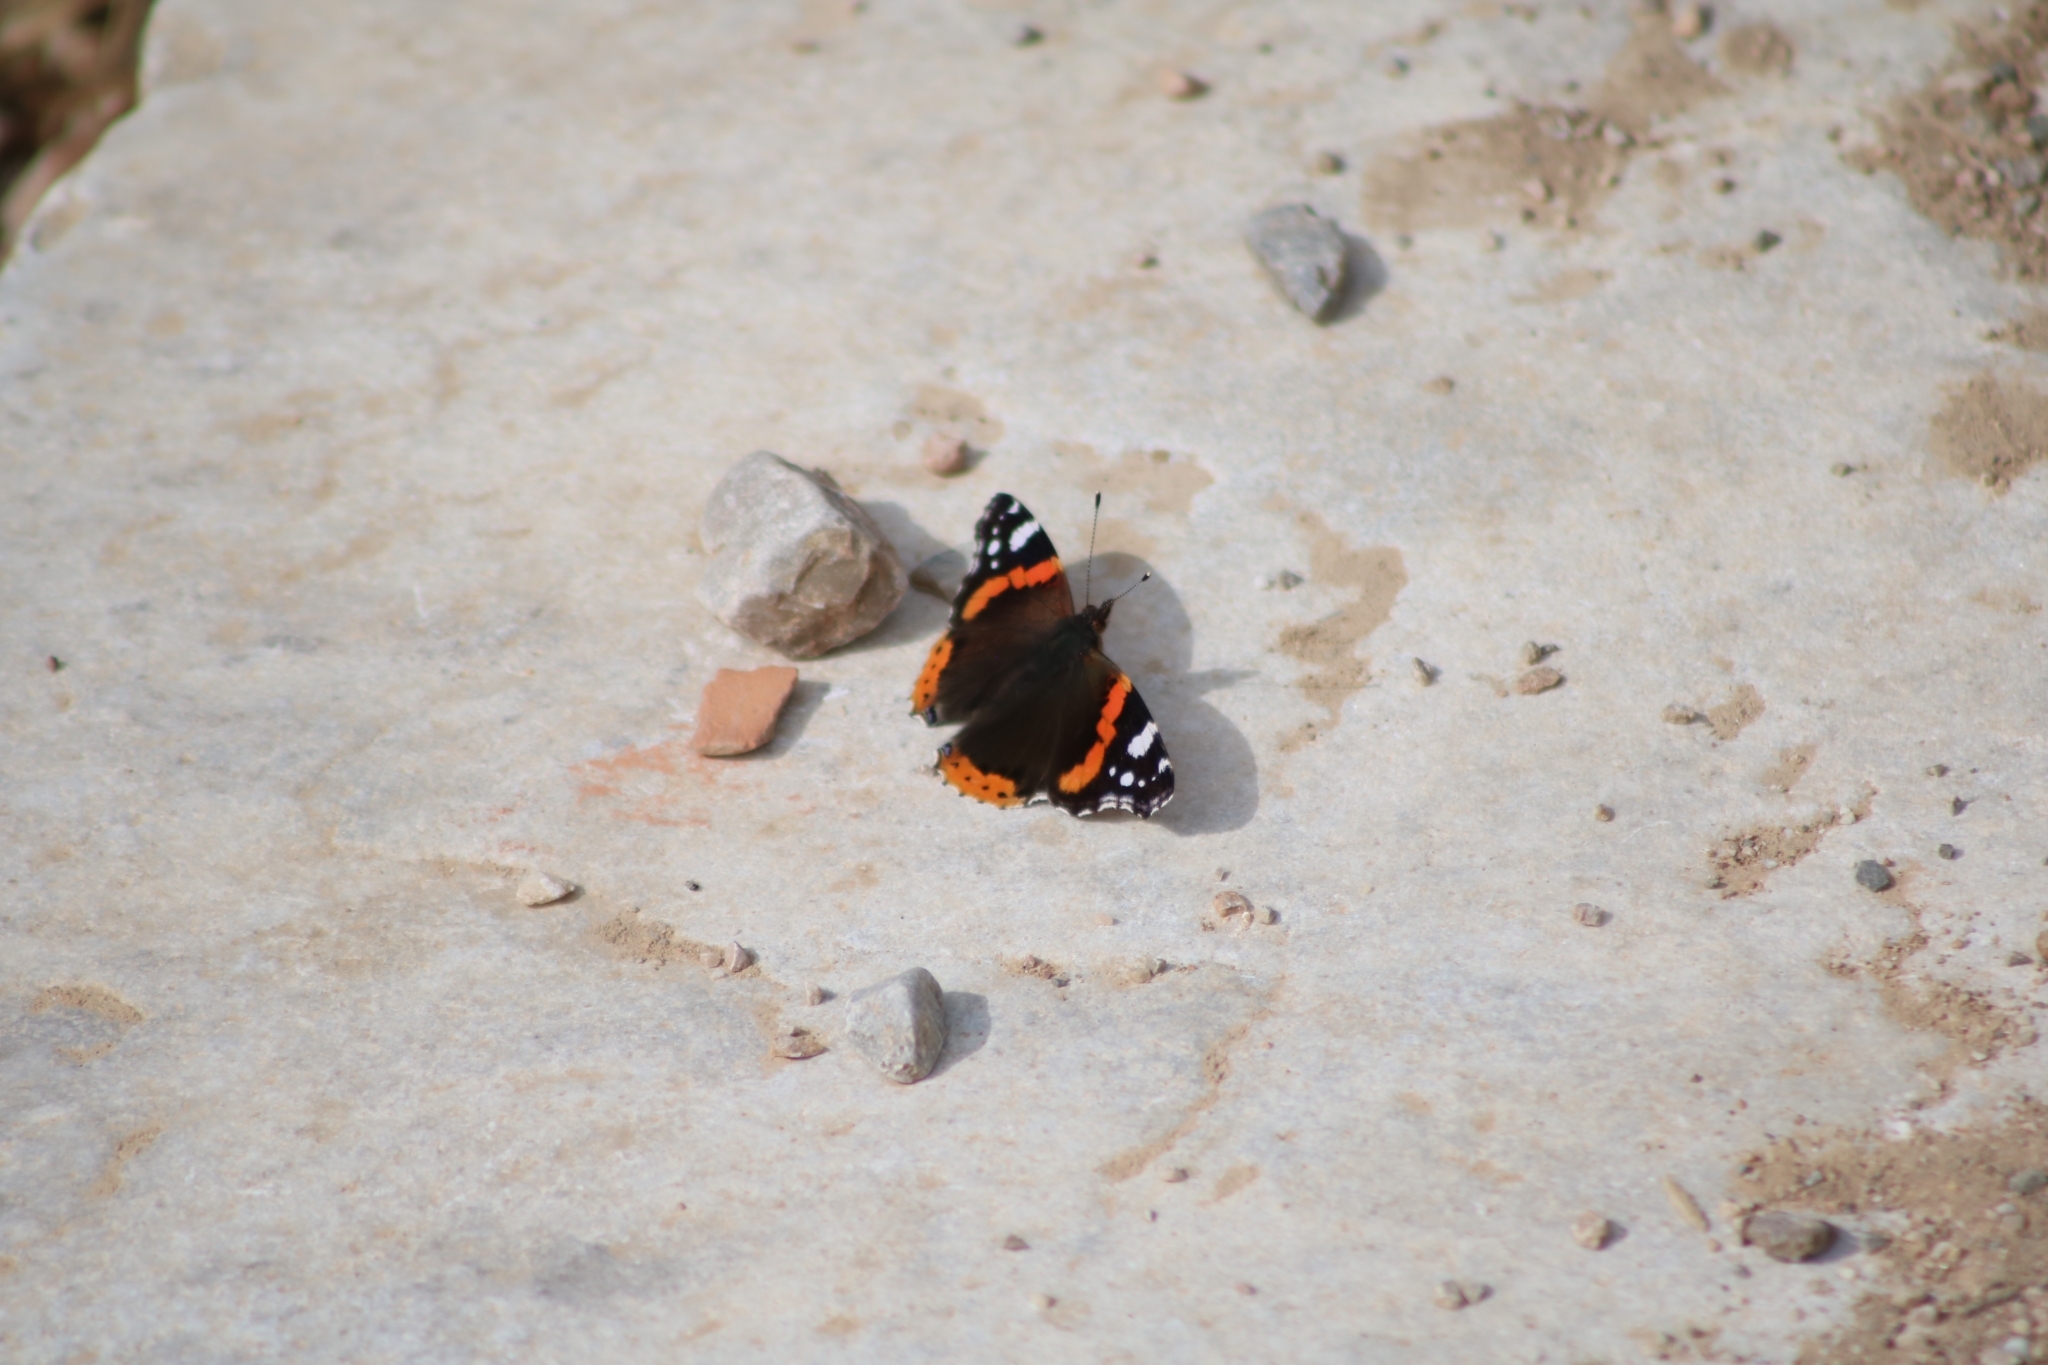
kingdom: Animalia
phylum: Arthropoda
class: Insecta
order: Lepidoptera
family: Nymphalidae
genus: Vanessa
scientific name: Vanessa atalanta
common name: Red admiral
